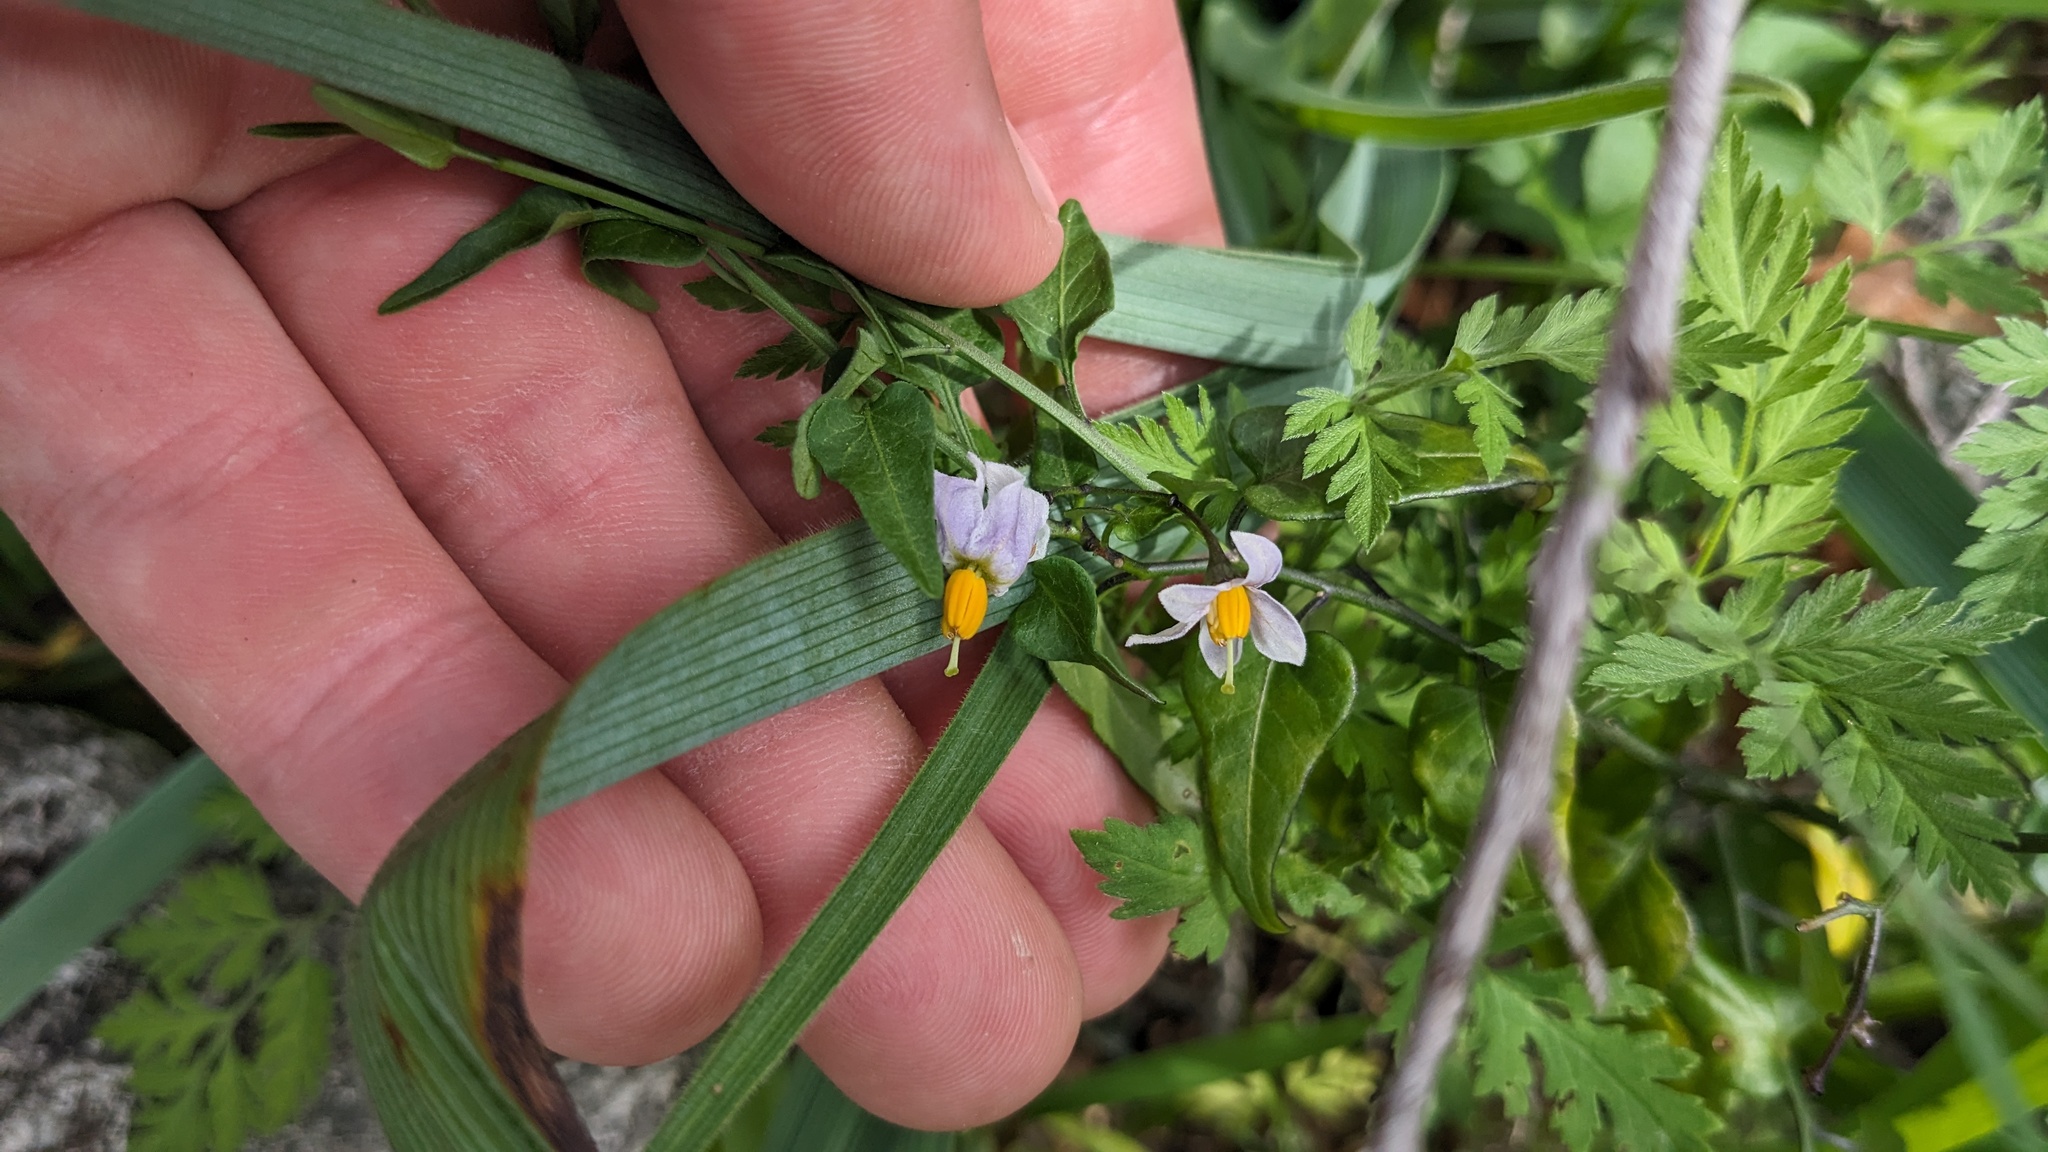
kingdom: Plantae
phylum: Tracheophyta
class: Magnoliopsida
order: Solanales
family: Solanaceae
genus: Solanum
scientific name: Solanum triquetrum
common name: Texas nightshade
